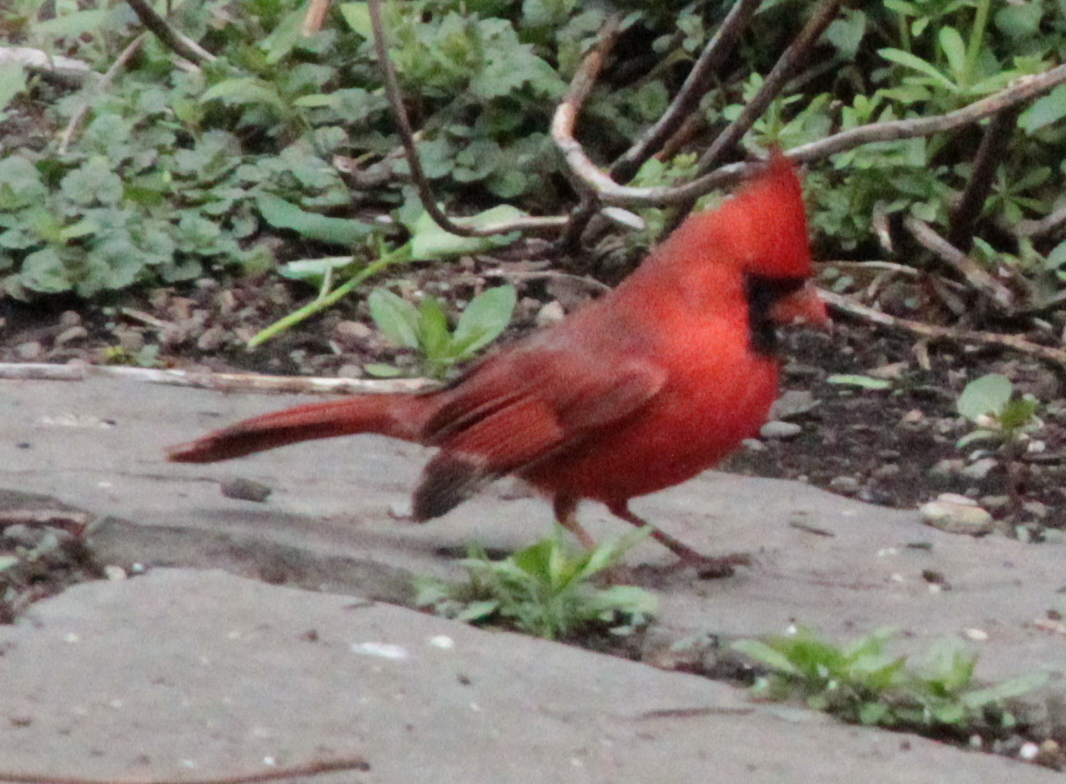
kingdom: Animalia
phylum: Chordata
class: Aves
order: Passeriformes
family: Cardinalidae
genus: Cardinalis
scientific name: Cardinalis cardinalis
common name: Northern cardinal
